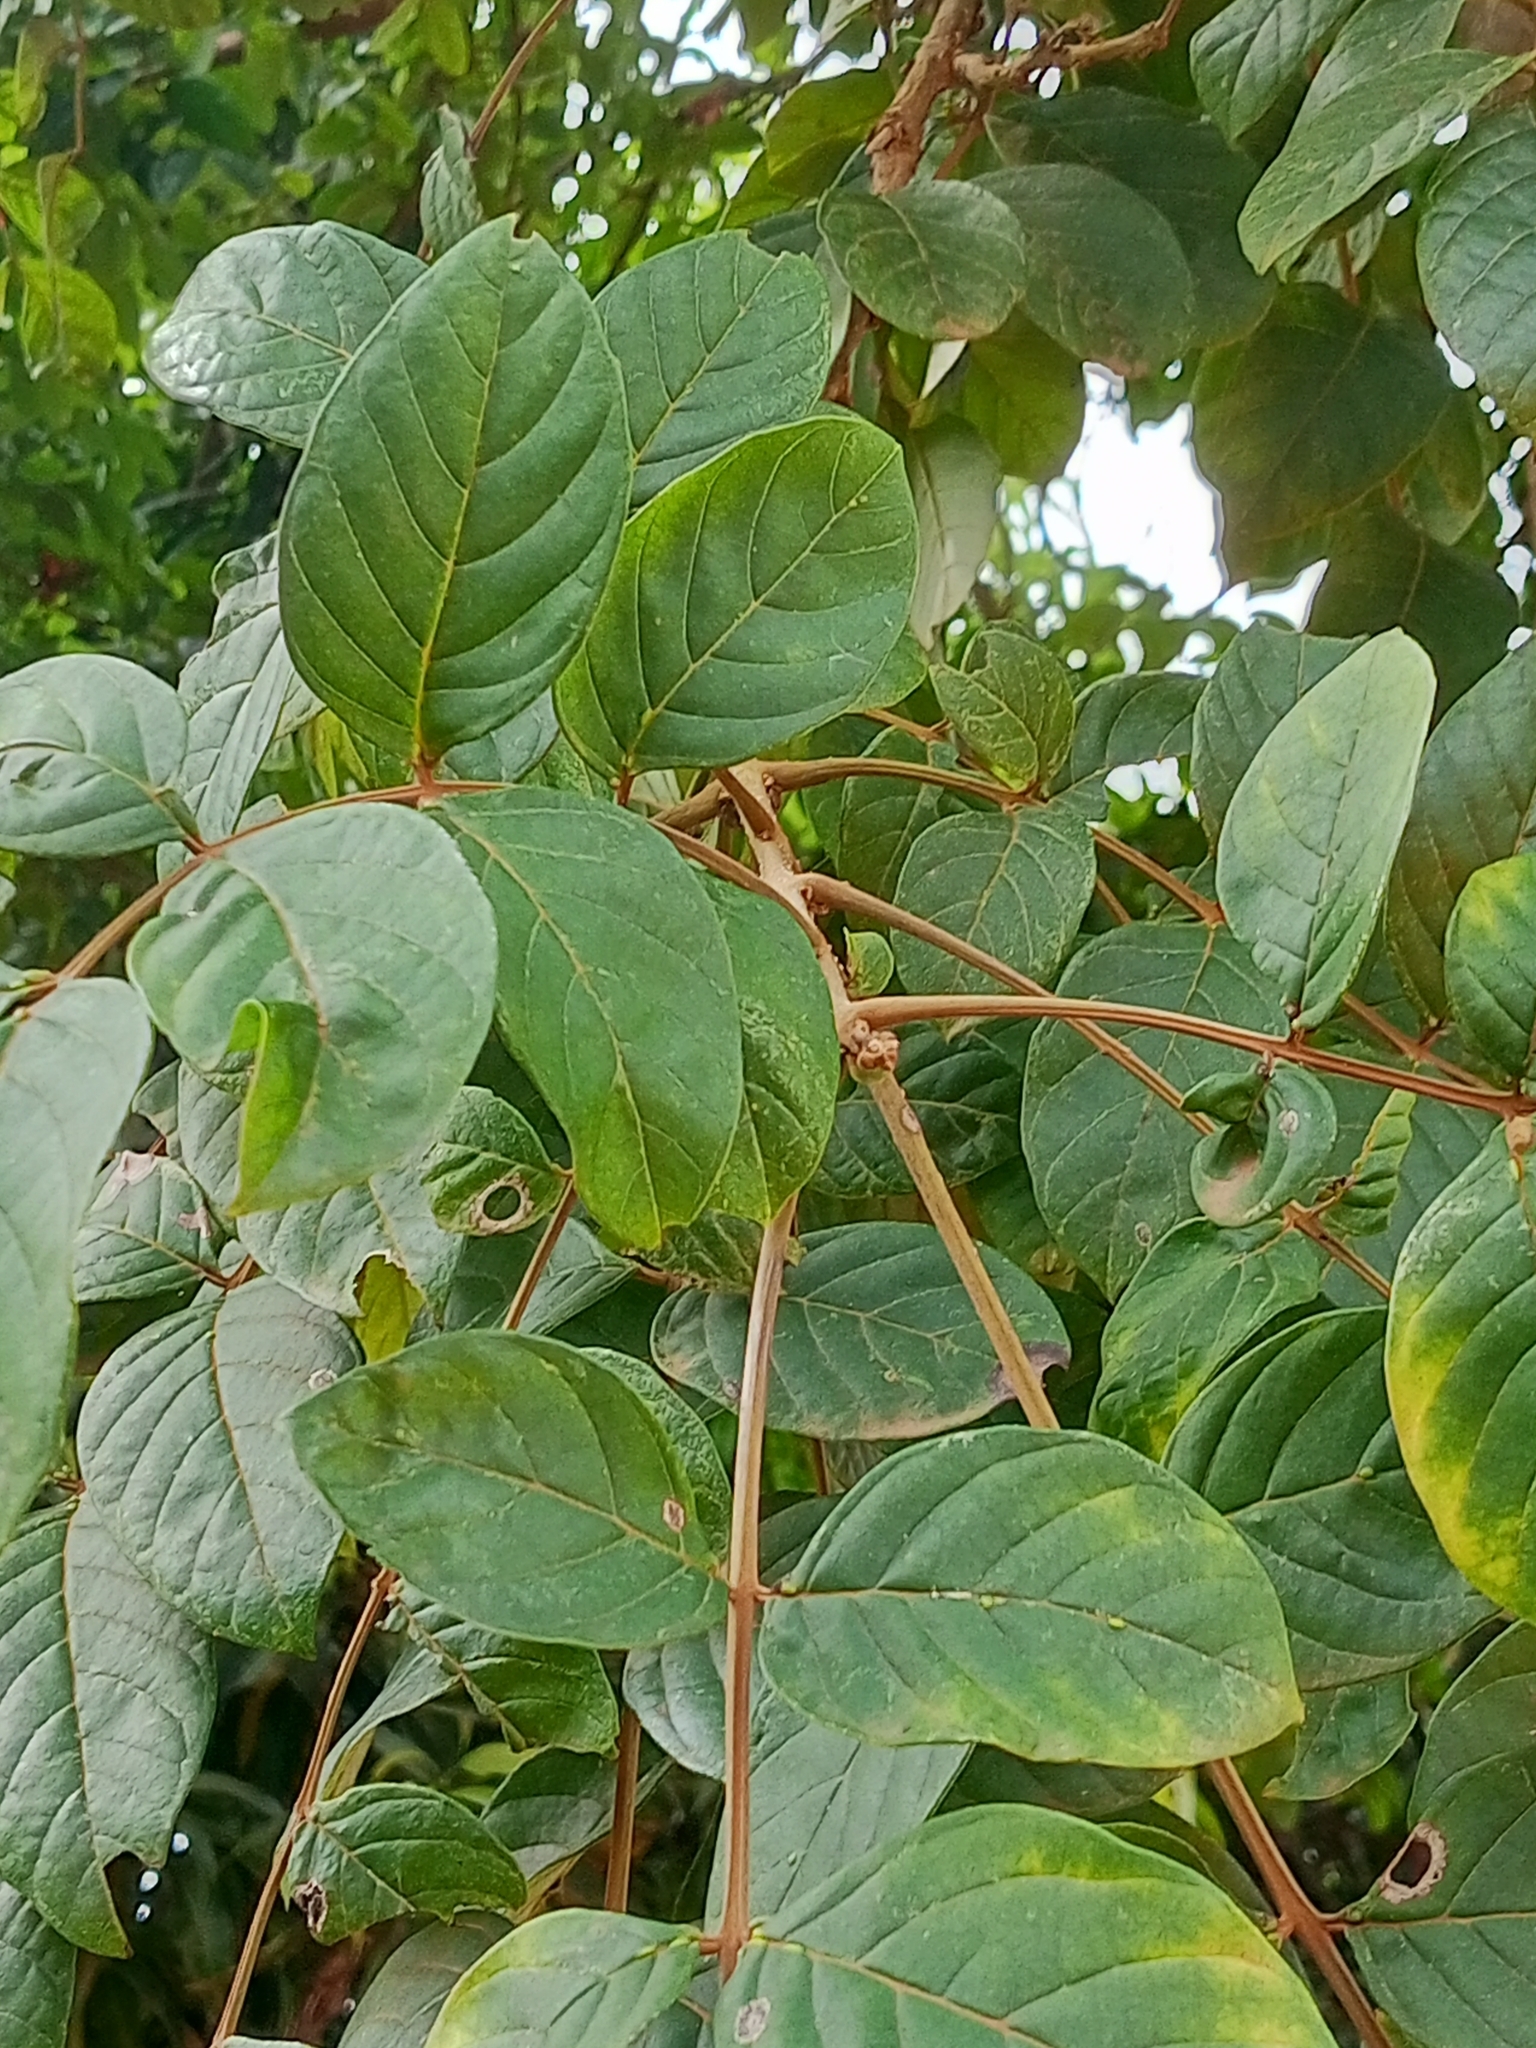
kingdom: Plantae
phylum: Tracheophyta
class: Magnoliopsida
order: Lamiales
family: Bignoniaceae
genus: Spathodea
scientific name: Spathodea campanulata
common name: African tuliptree
